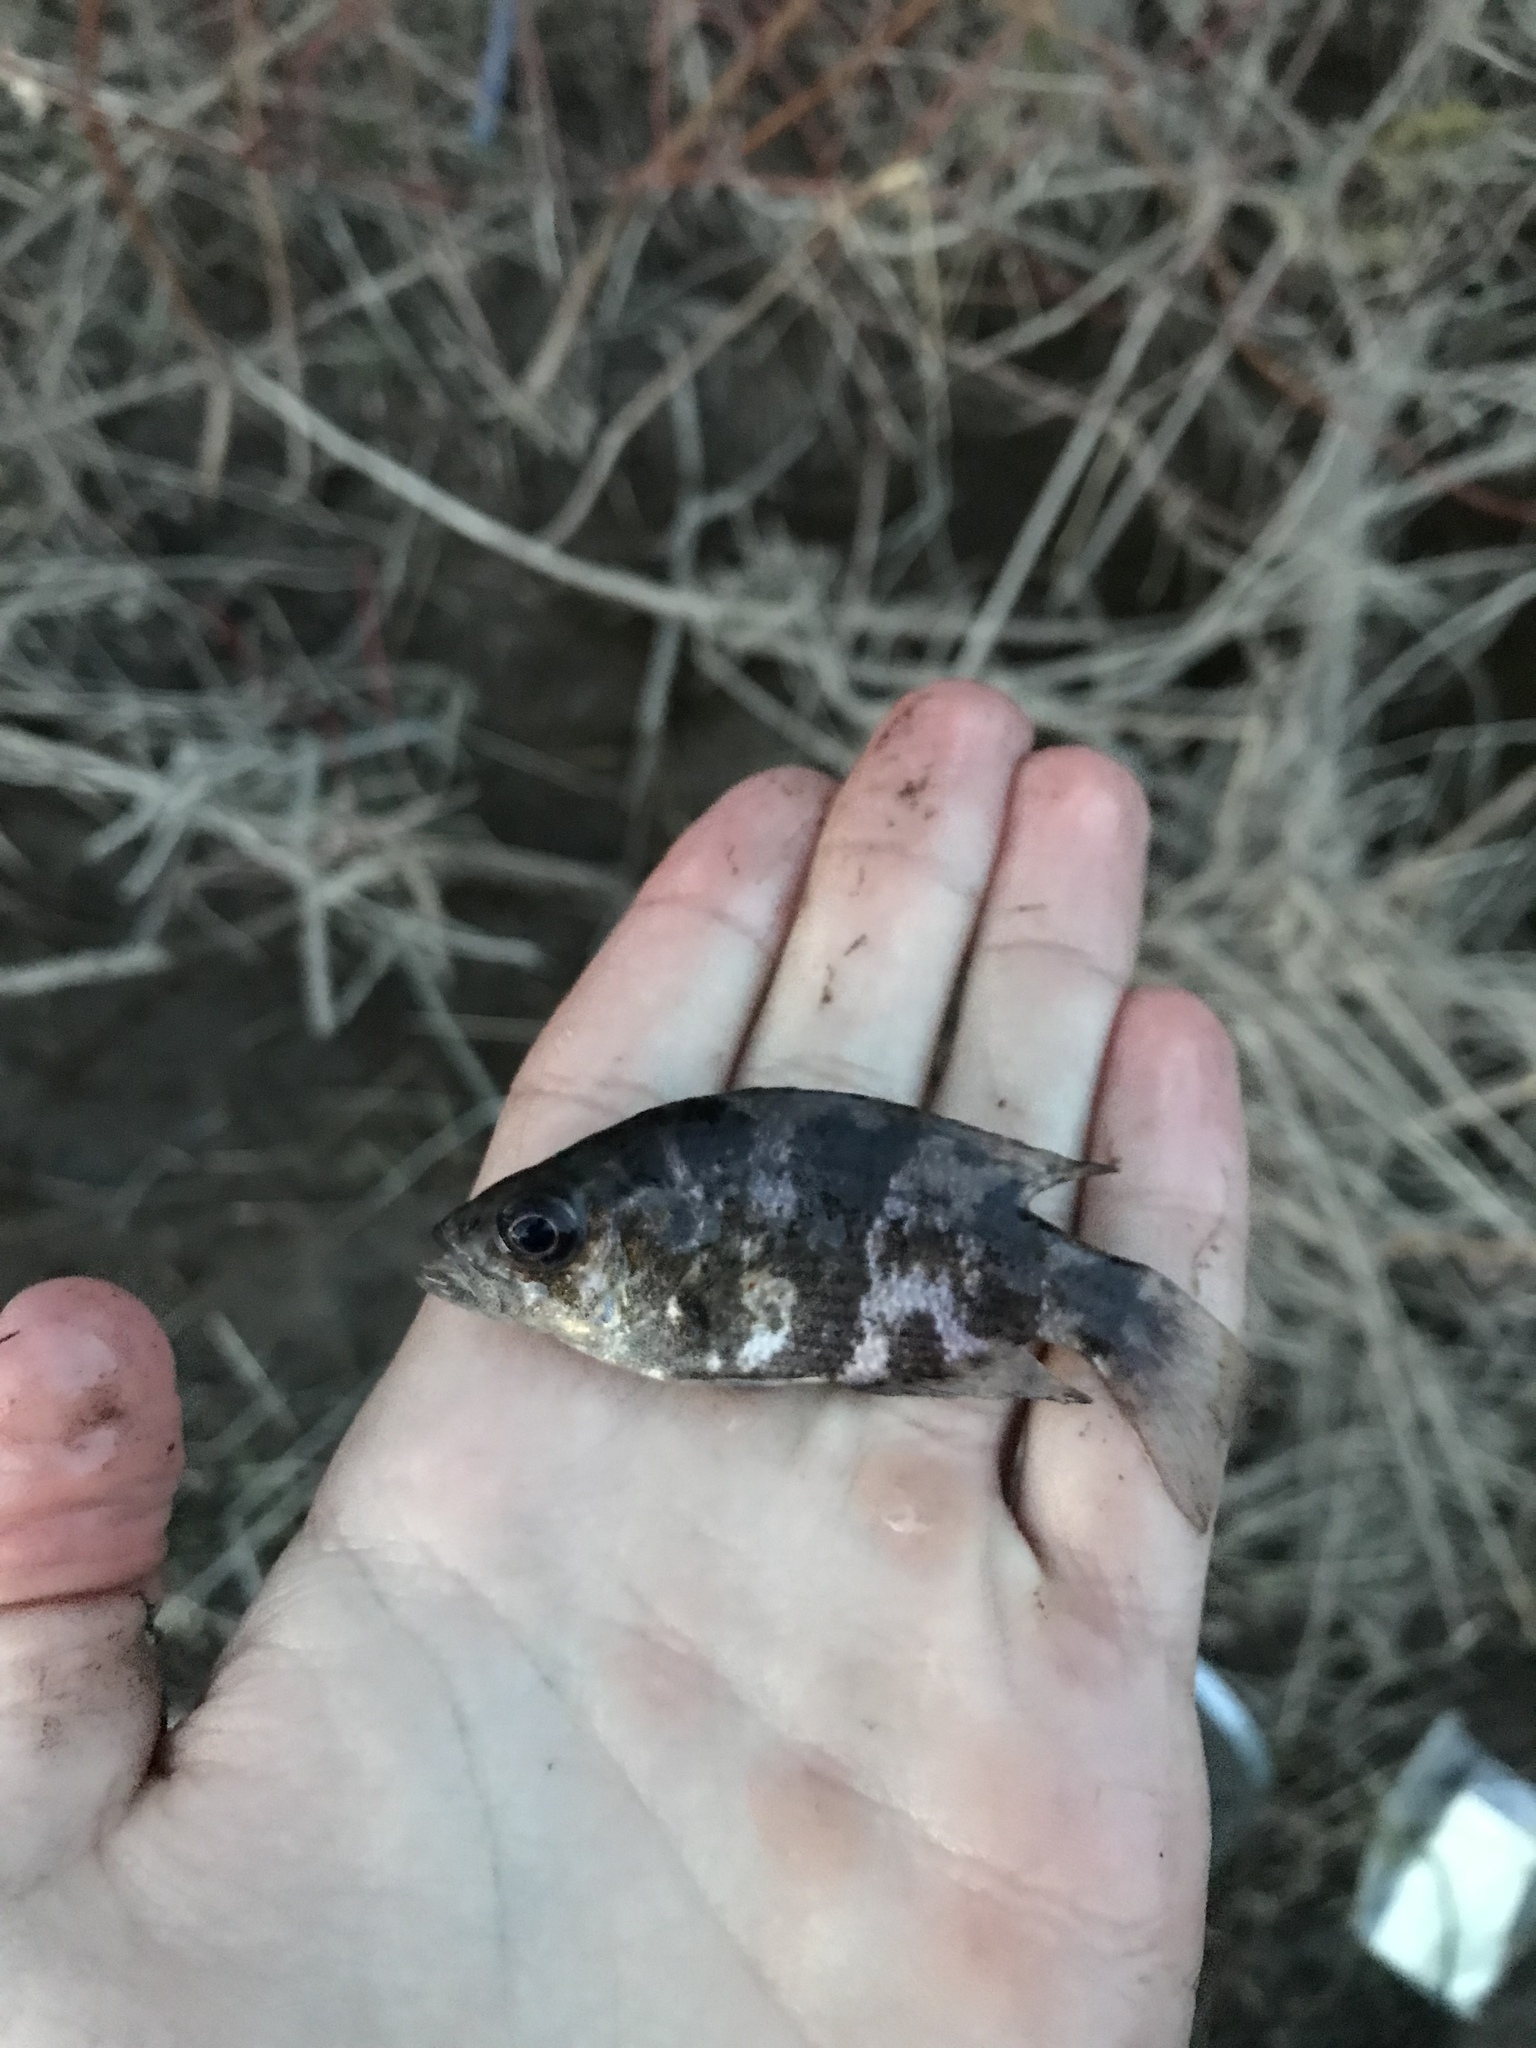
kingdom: Animalia
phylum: Chordata
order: Perciformes
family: Centrarchidae
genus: Ambloplites
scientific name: Ambloplites rupestris
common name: Rock bass
